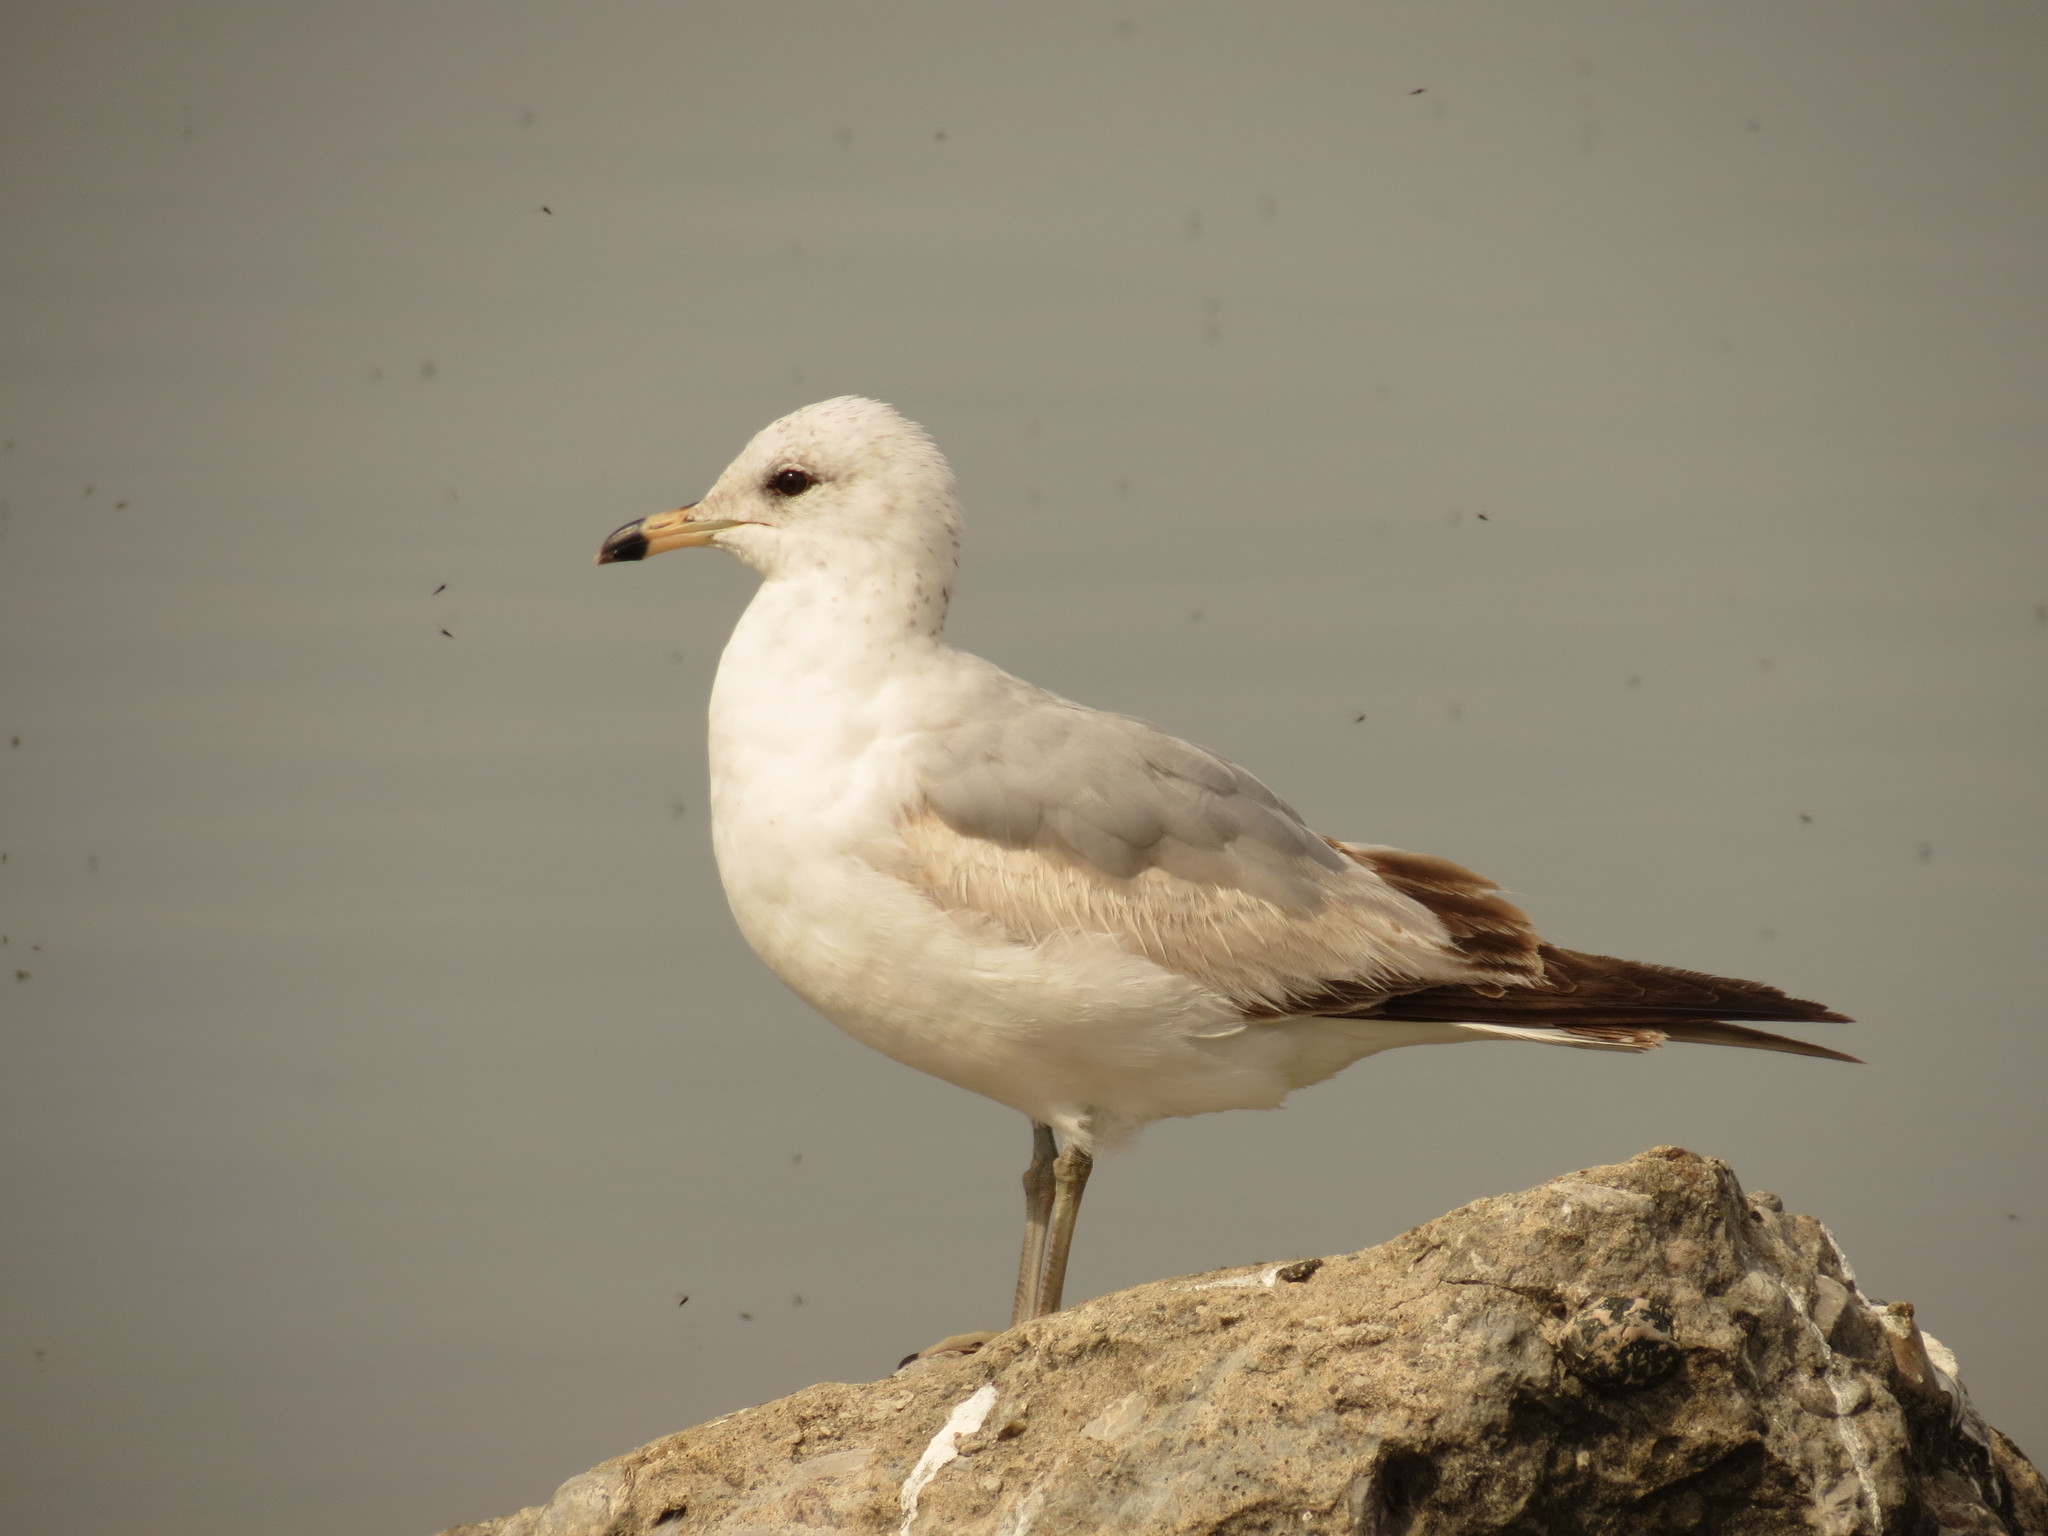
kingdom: Animalia
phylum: Chordata
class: Aves
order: Charadriiformes
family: Laridae
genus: Larus
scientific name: Larus delawarensis
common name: Ring-billed gull
